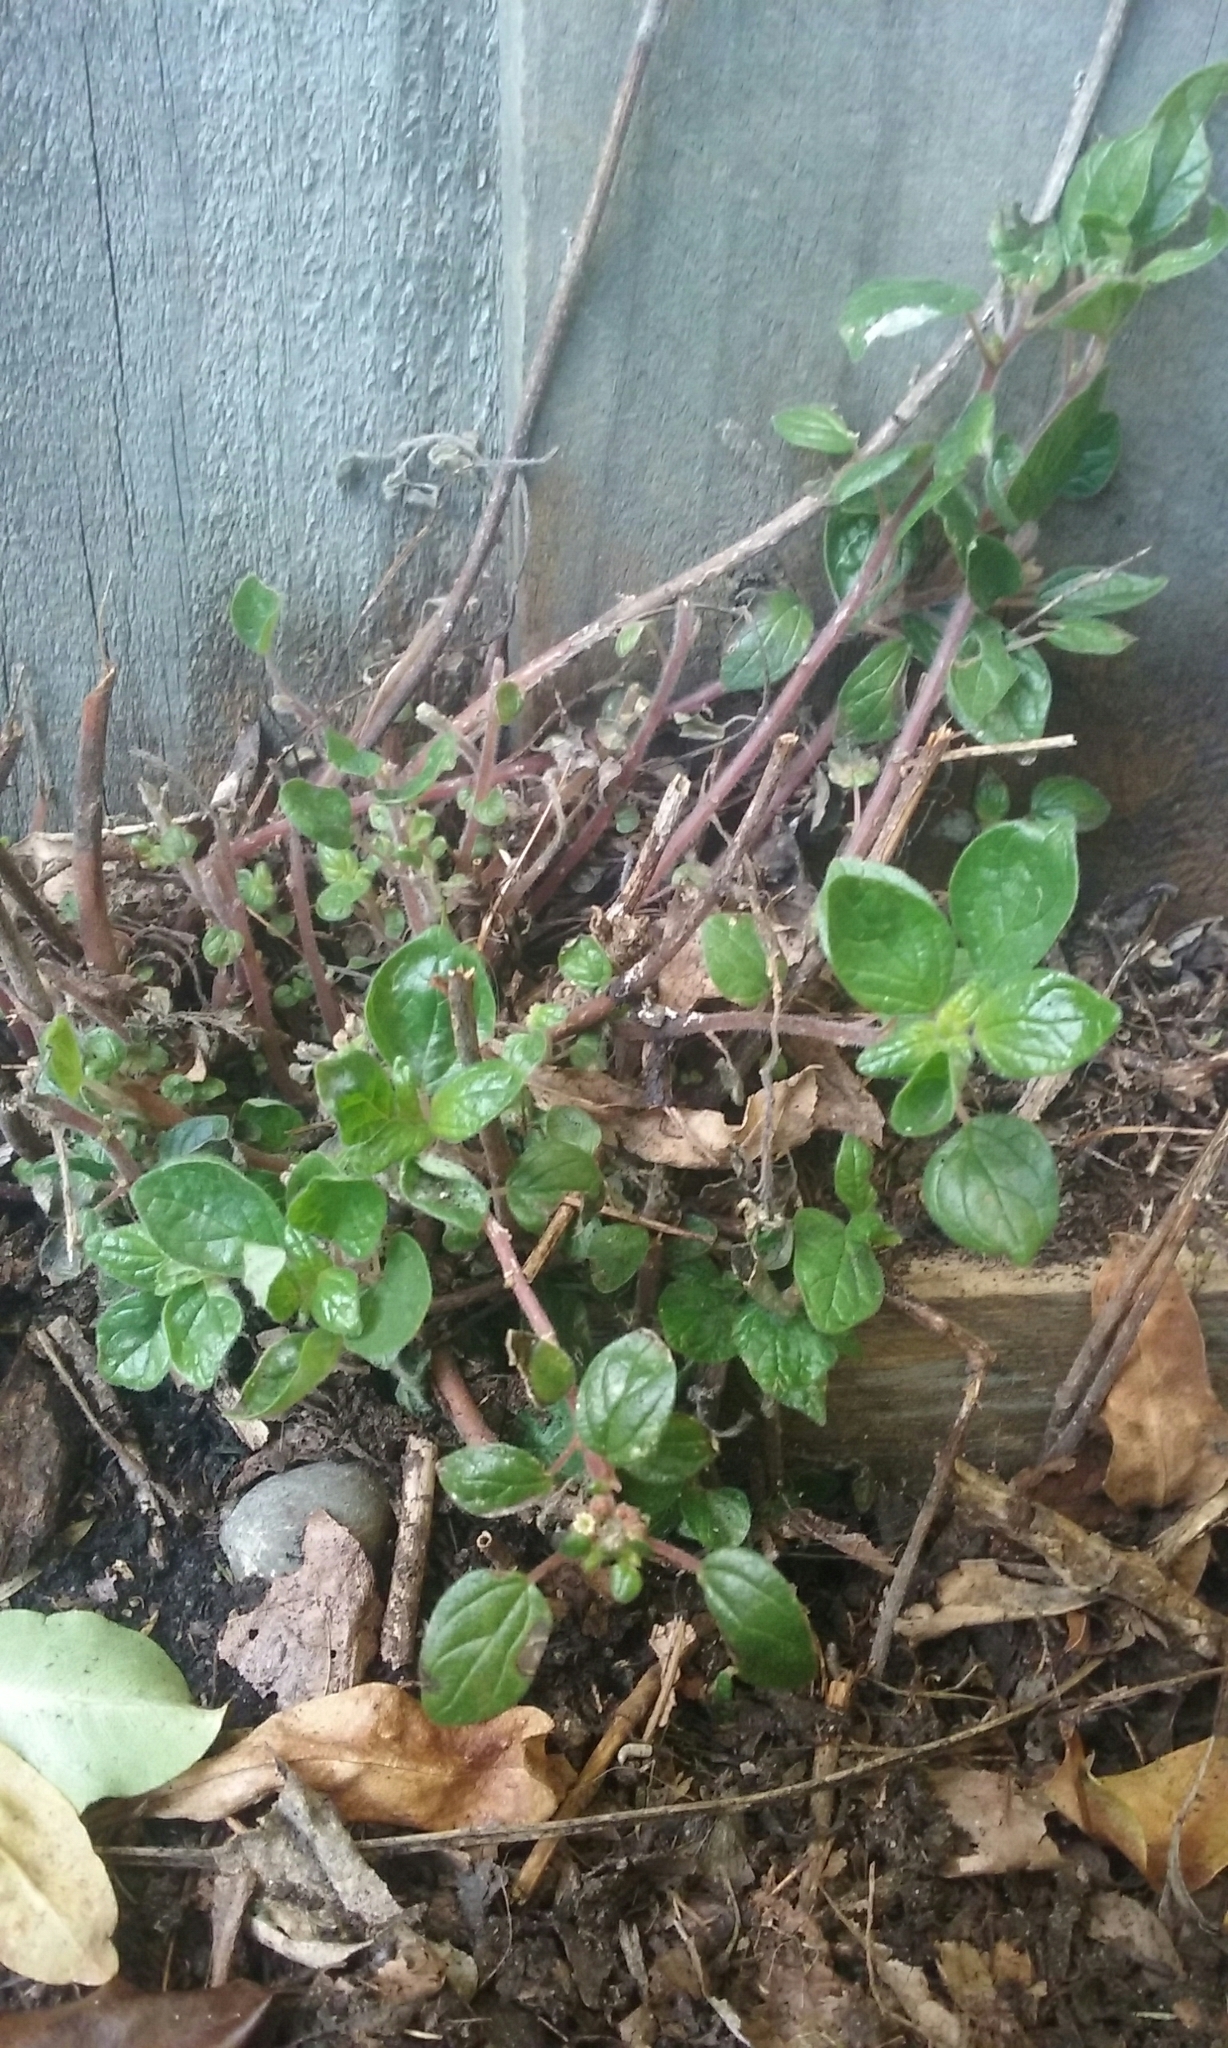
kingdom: Plantae
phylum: Tracheophyta
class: Magnoliopsida
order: Rosales
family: Urticaceae
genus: Parietaria
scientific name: Parietaria judaica
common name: Pellitory-of-the-wall
